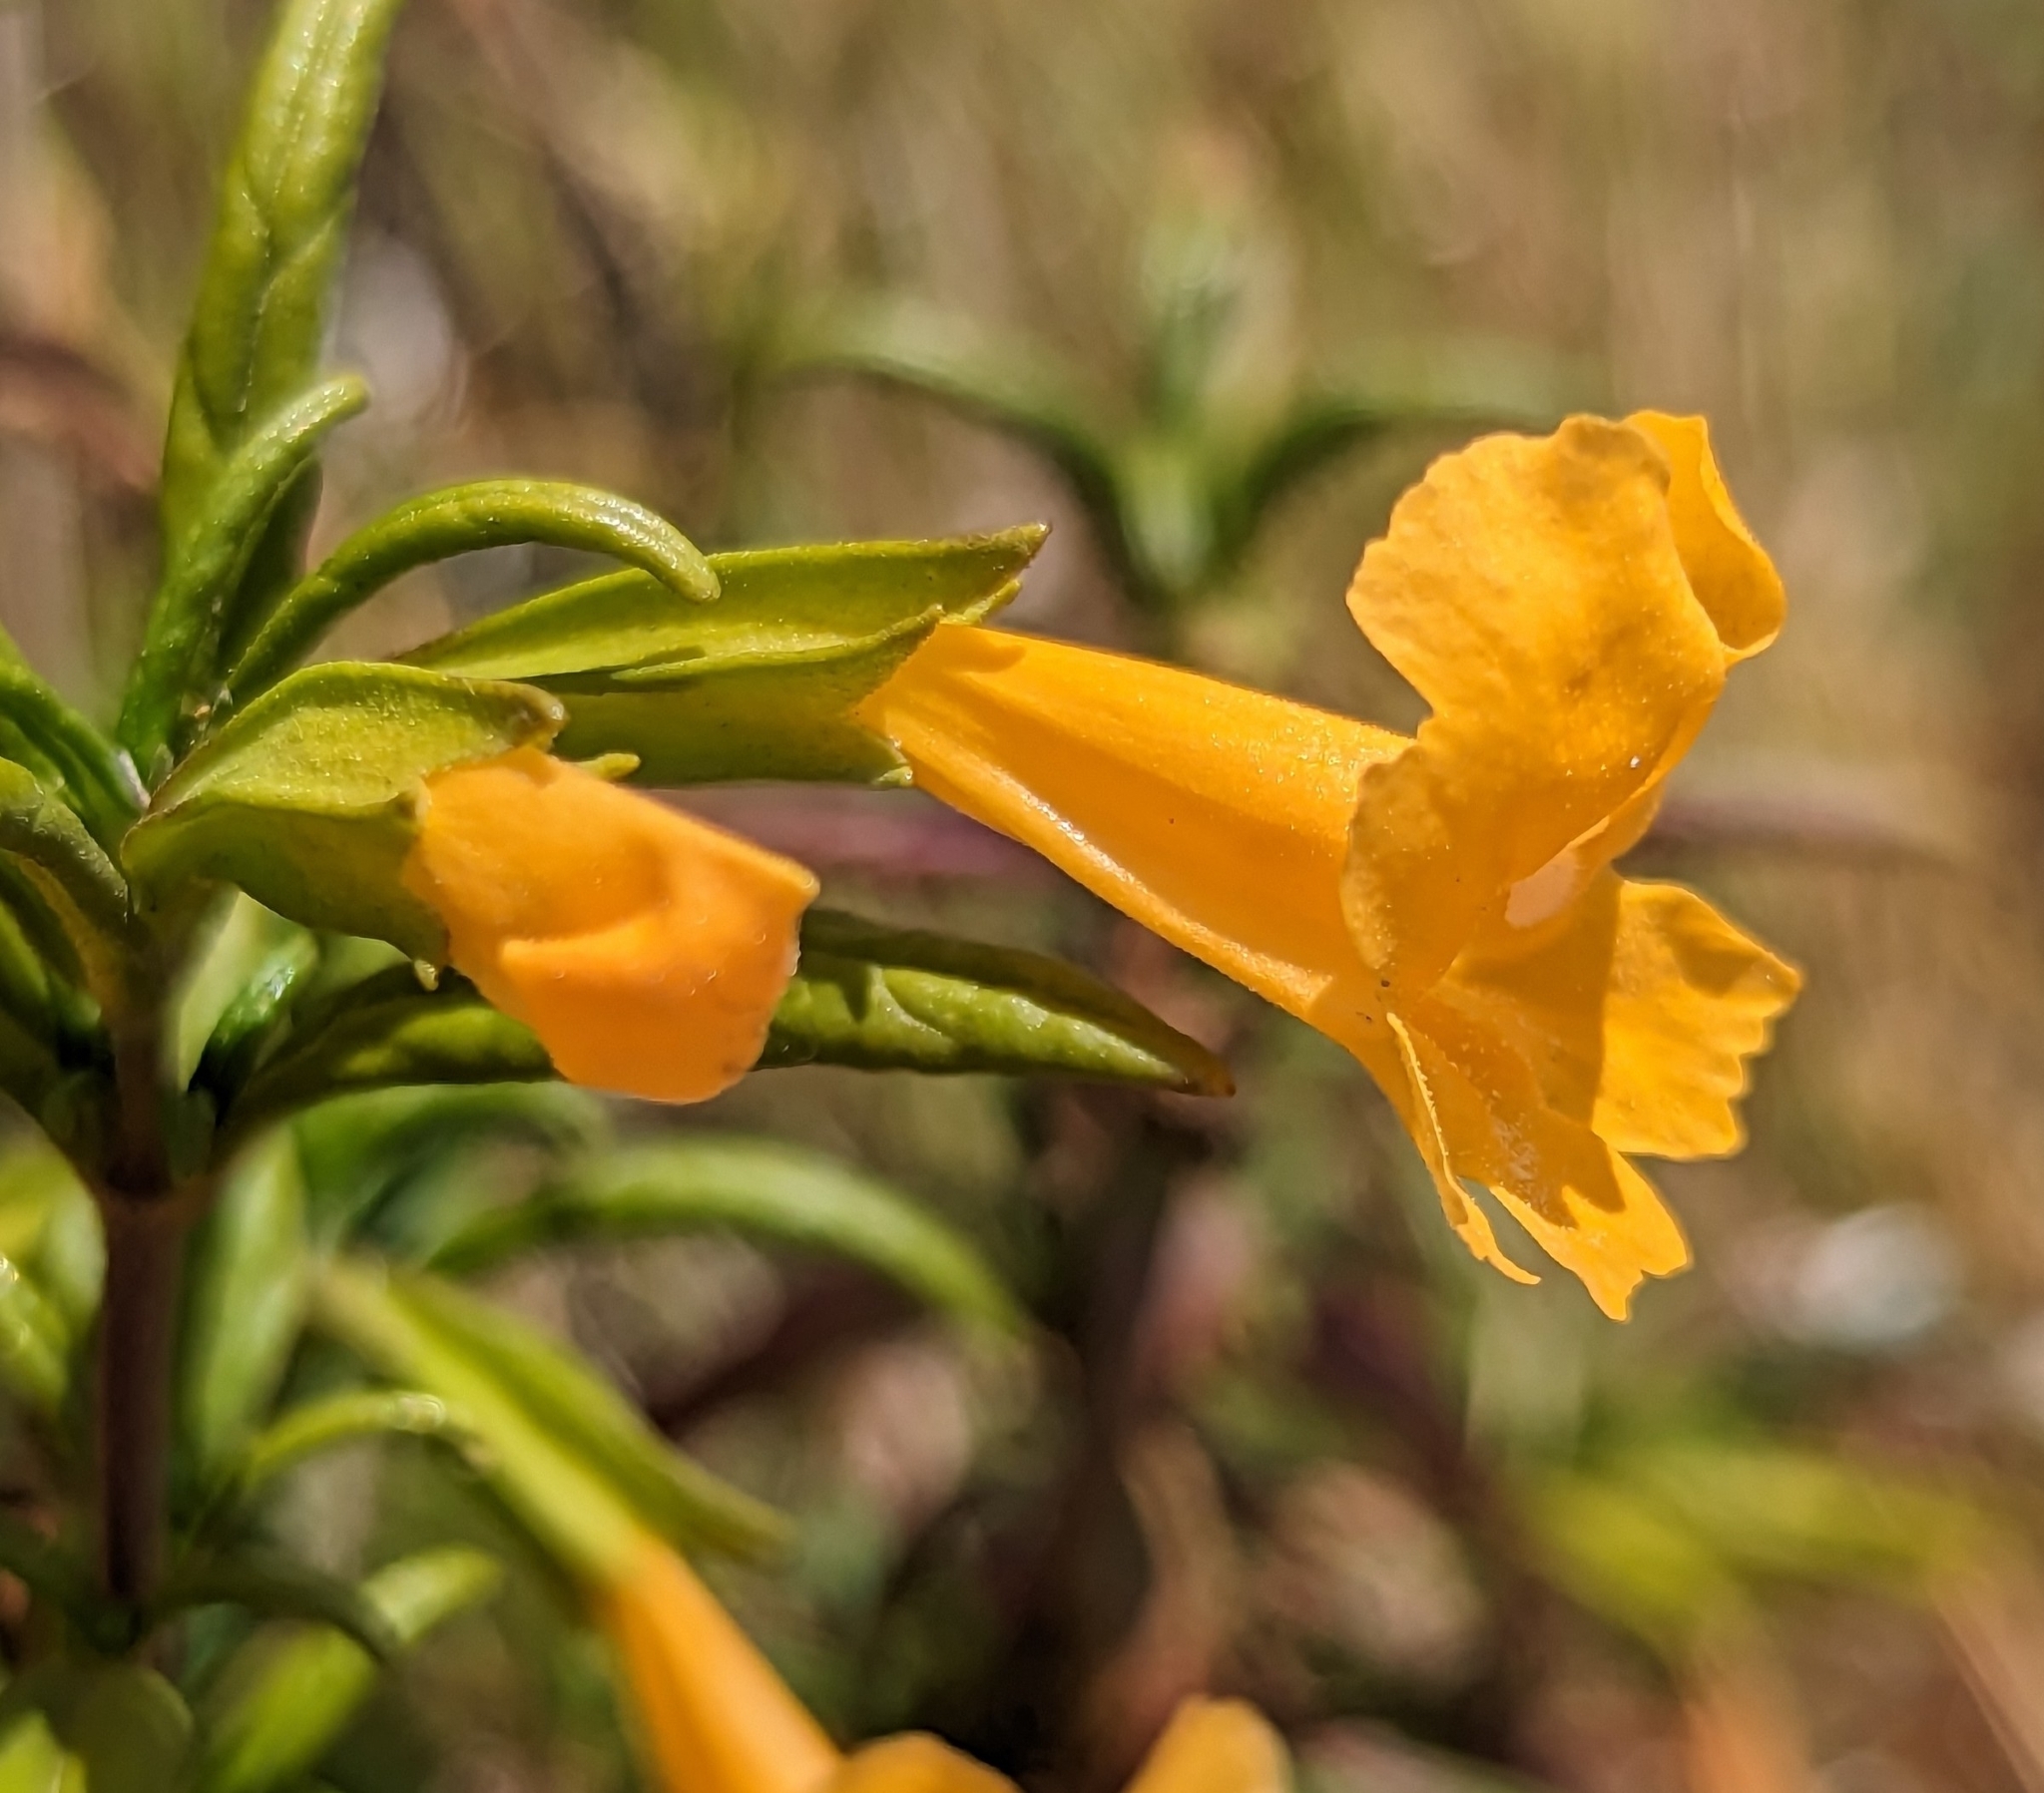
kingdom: Plantae
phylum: Tracheophyta
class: Magnoliopsida
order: Lamiales
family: Phrymaceae
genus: Diplacus
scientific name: Diplacus aurantiacus
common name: Bush monkey-flower
